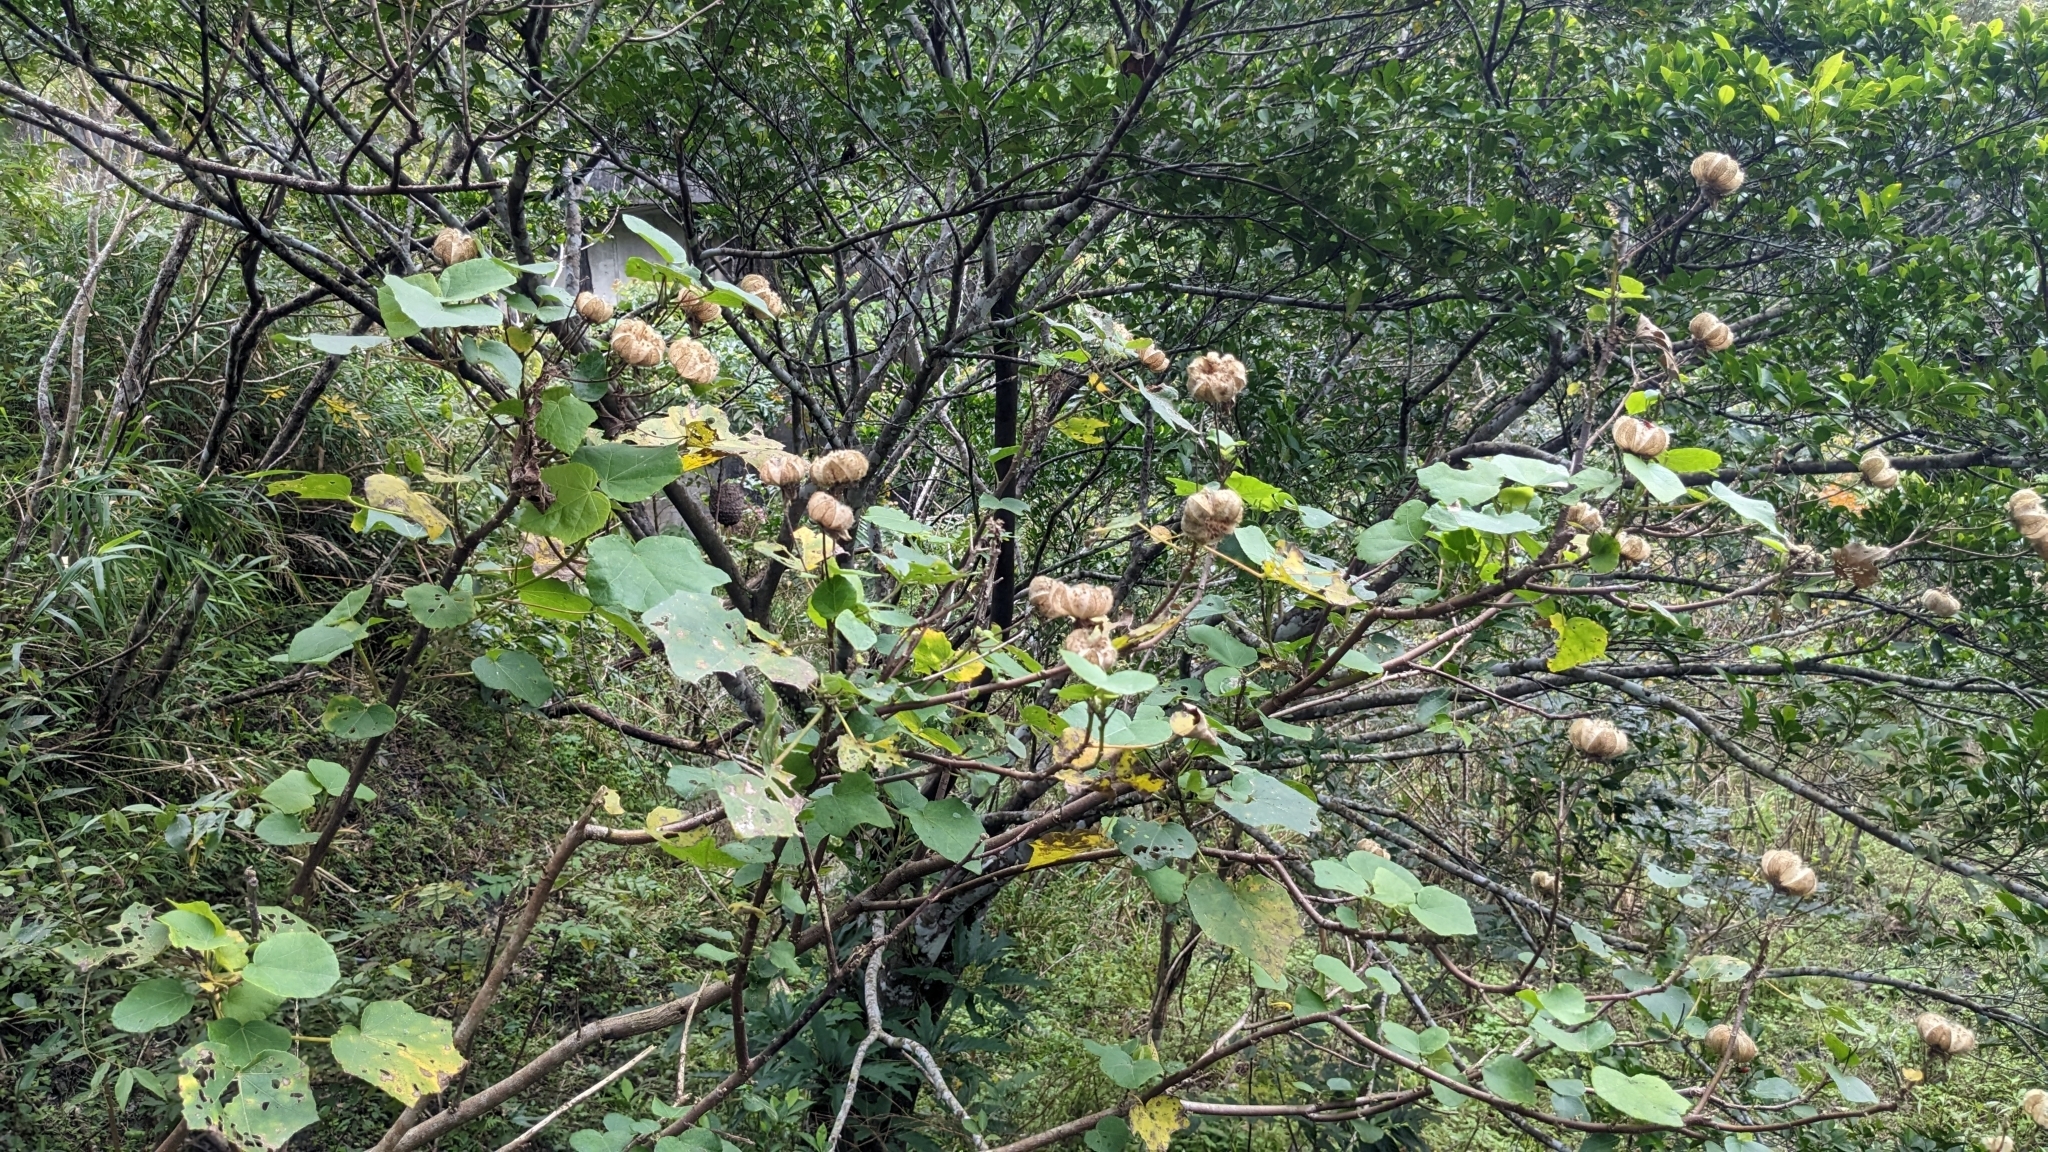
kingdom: Plantae
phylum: Tracheophyta
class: Magnoliopsida
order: Malvales
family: Malvaceae
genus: Hibiscus
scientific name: Hibiscus makinoi
